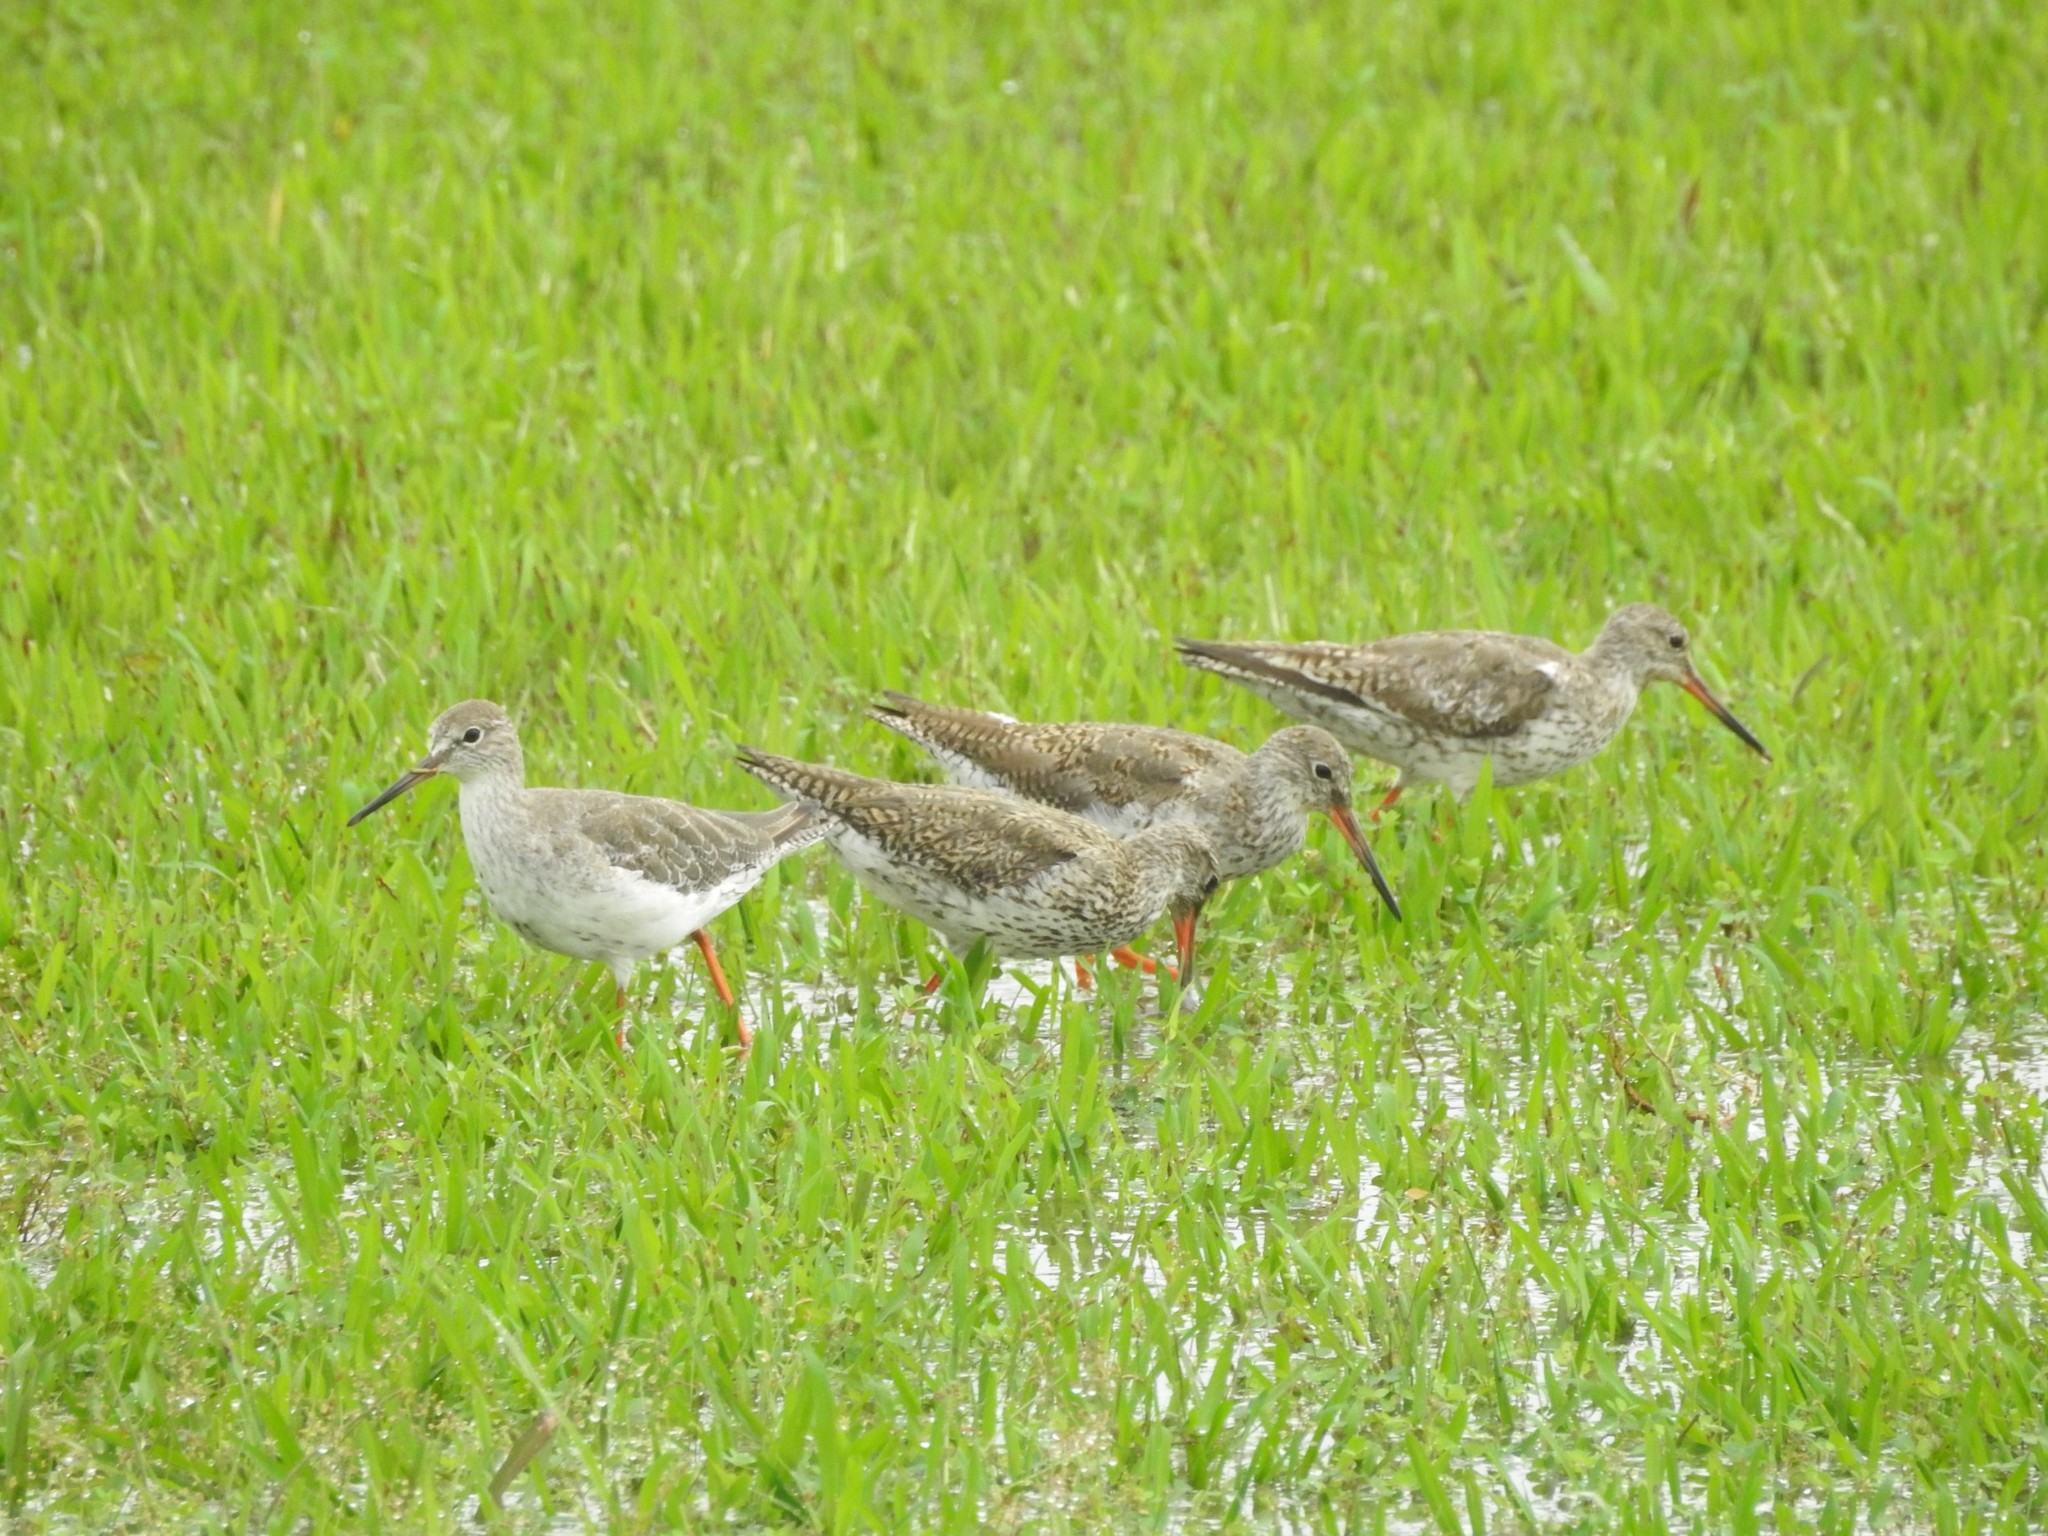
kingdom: Animalia
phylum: Chordata
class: Aves
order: Charadriiformes
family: Scolopacidae
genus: Tringa
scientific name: Tringa totanus
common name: Common redshank
